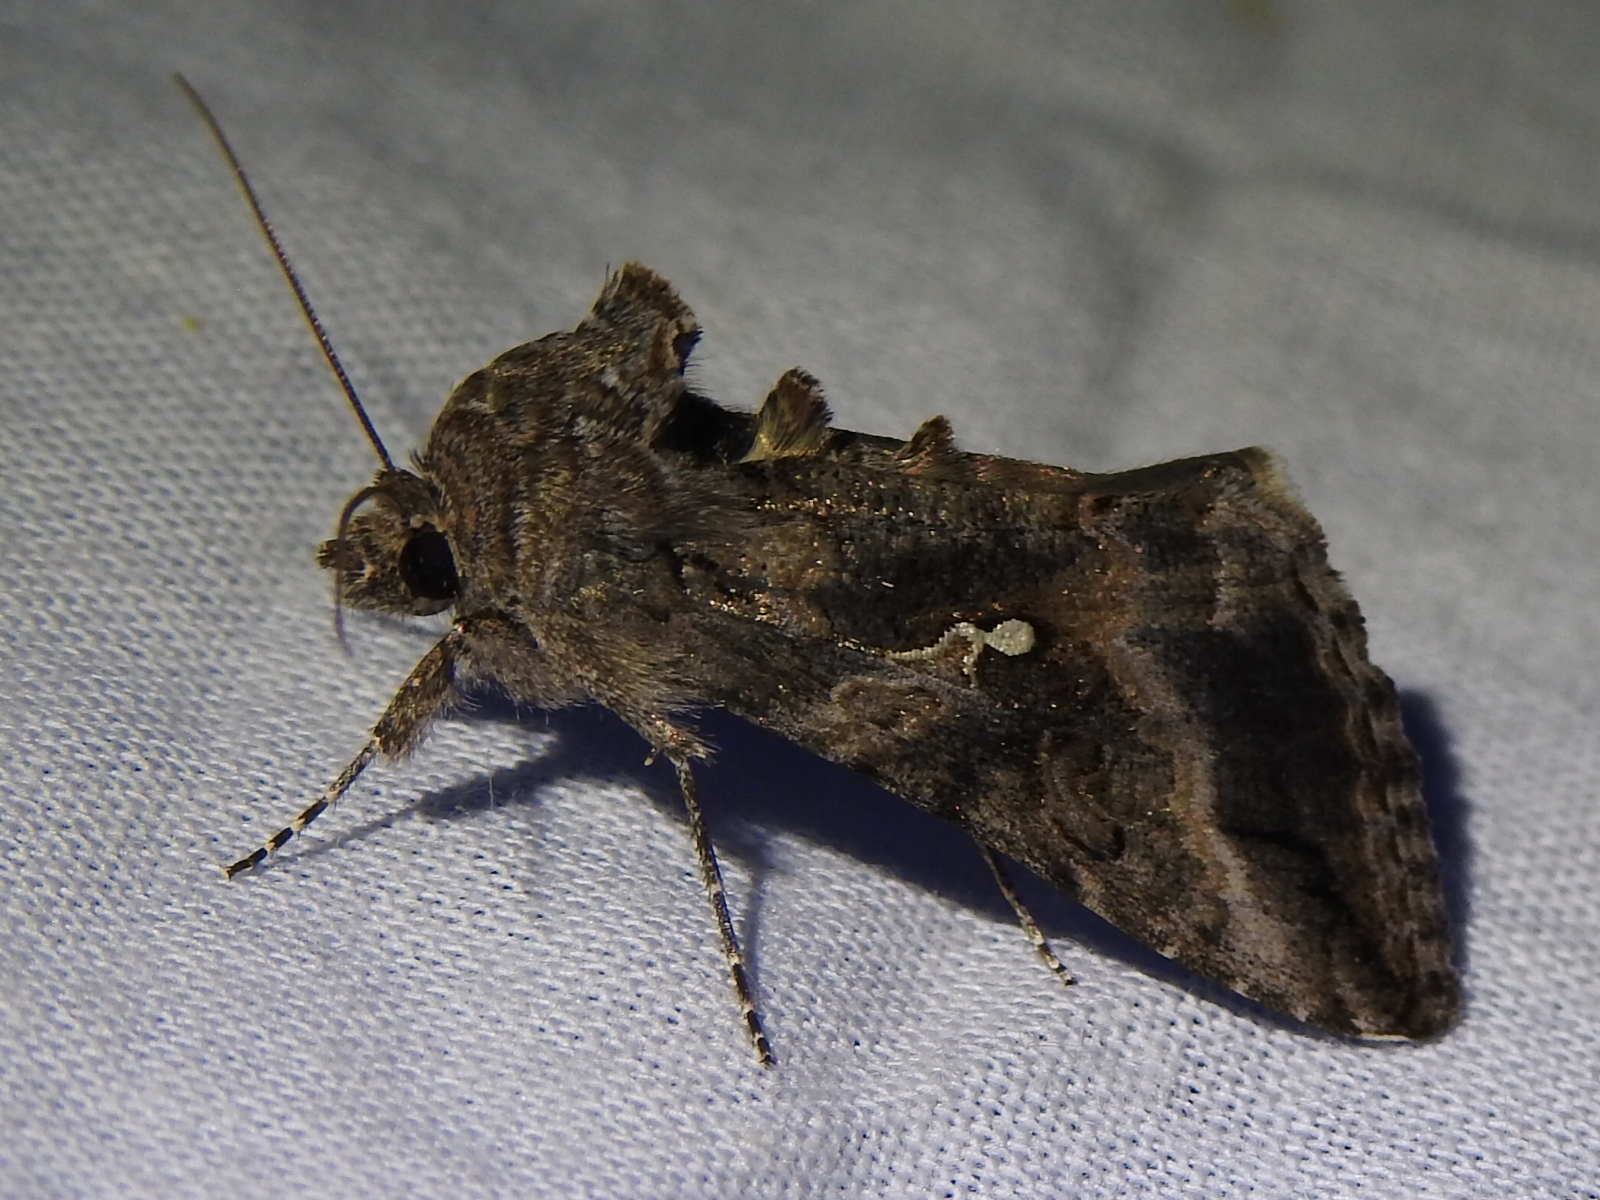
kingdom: Animalia
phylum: Arthropoda
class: Insecta
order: Lepidoptera
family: Noctuidae
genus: Rachiplusia
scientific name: Rachiplusia ou
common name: Gray looper moth
